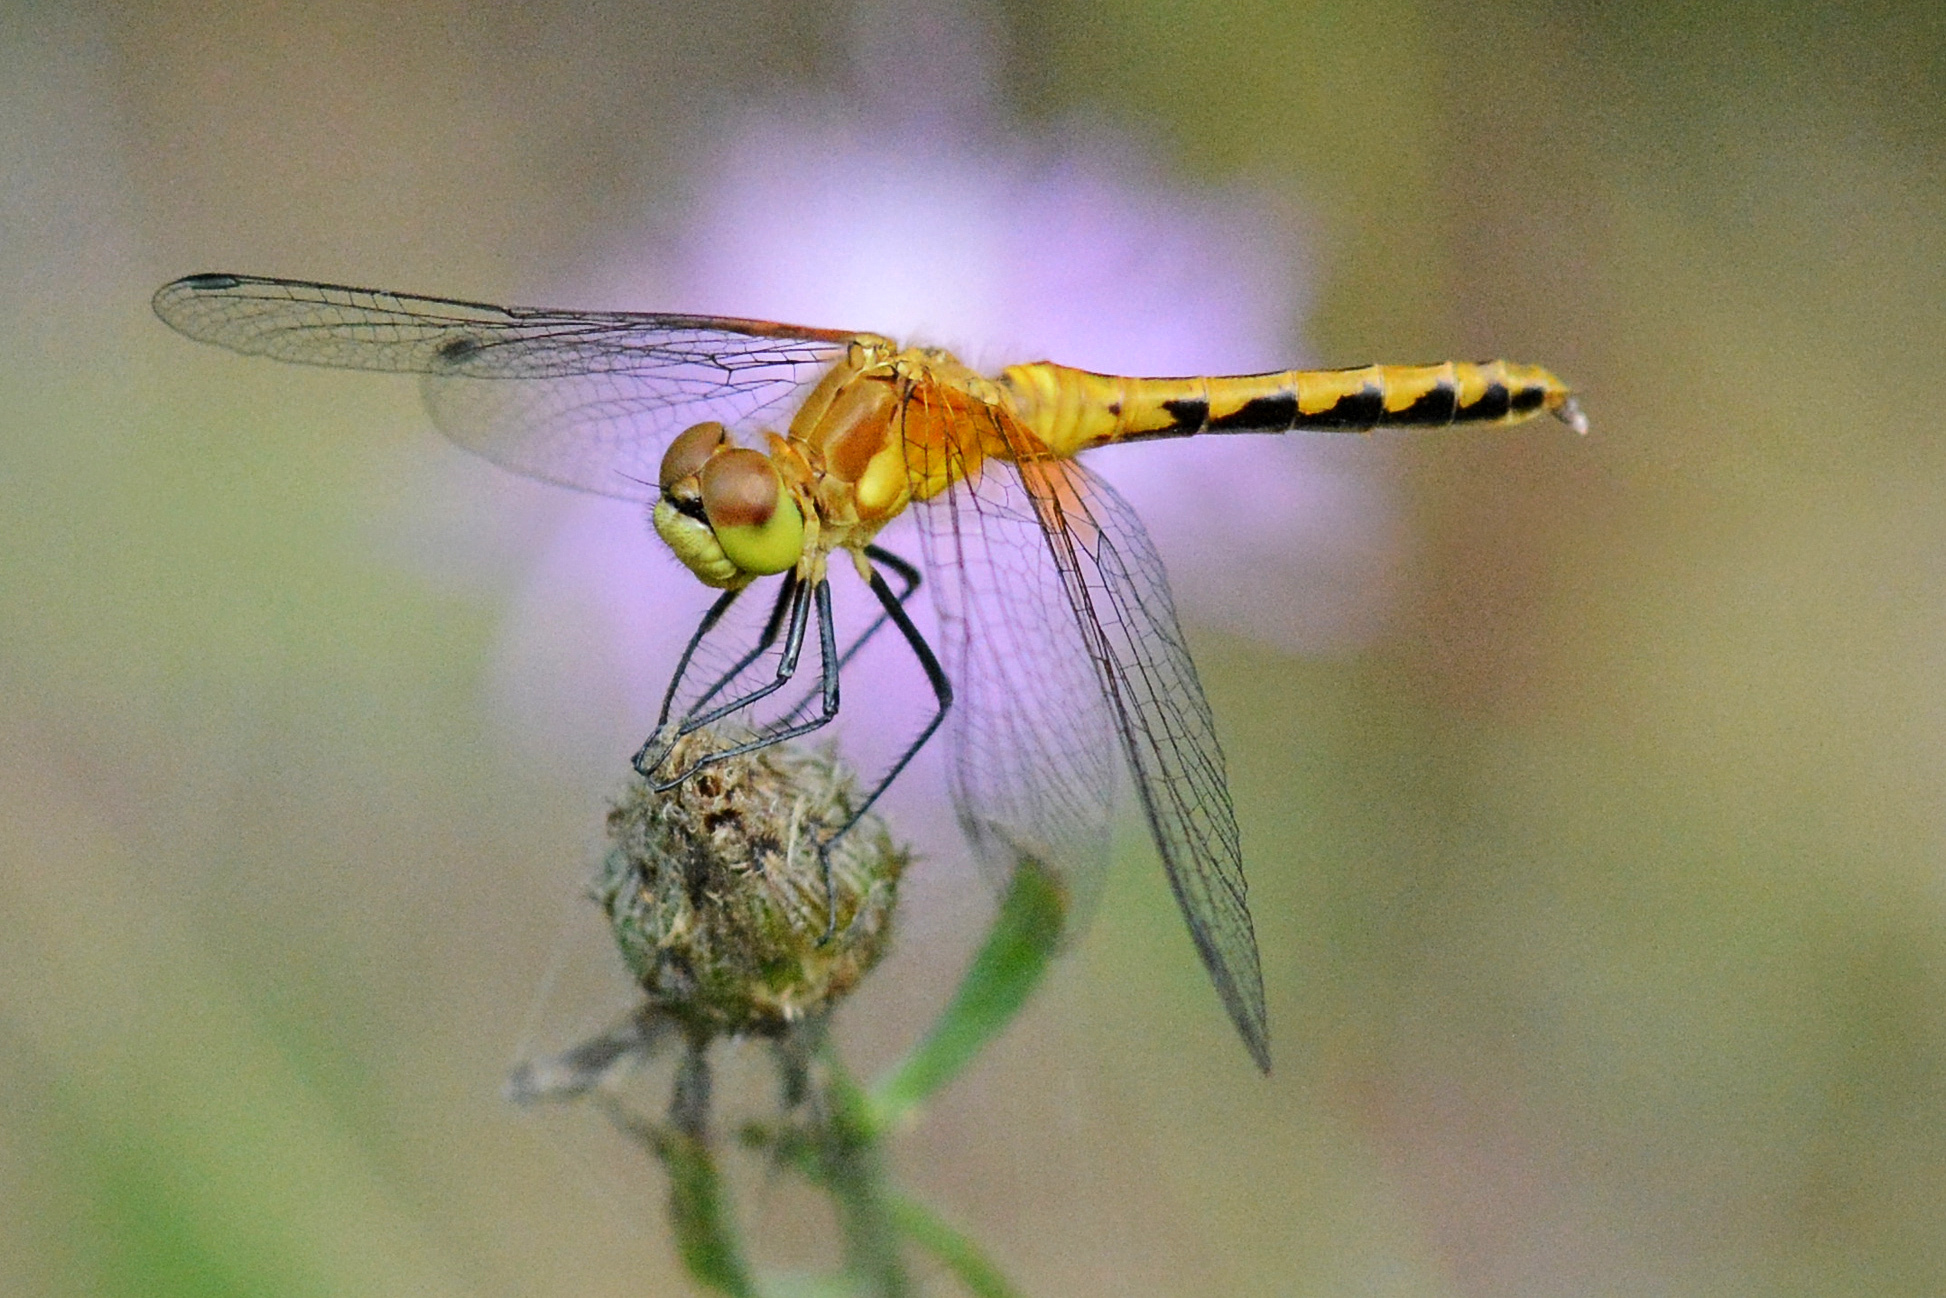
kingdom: Animalia
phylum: Arthropoda
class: Insecta
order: Odonata
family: Libellulidae
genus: Sympetrum
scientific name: Sympetrum obtrusum
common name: White-faced meadowhawk
